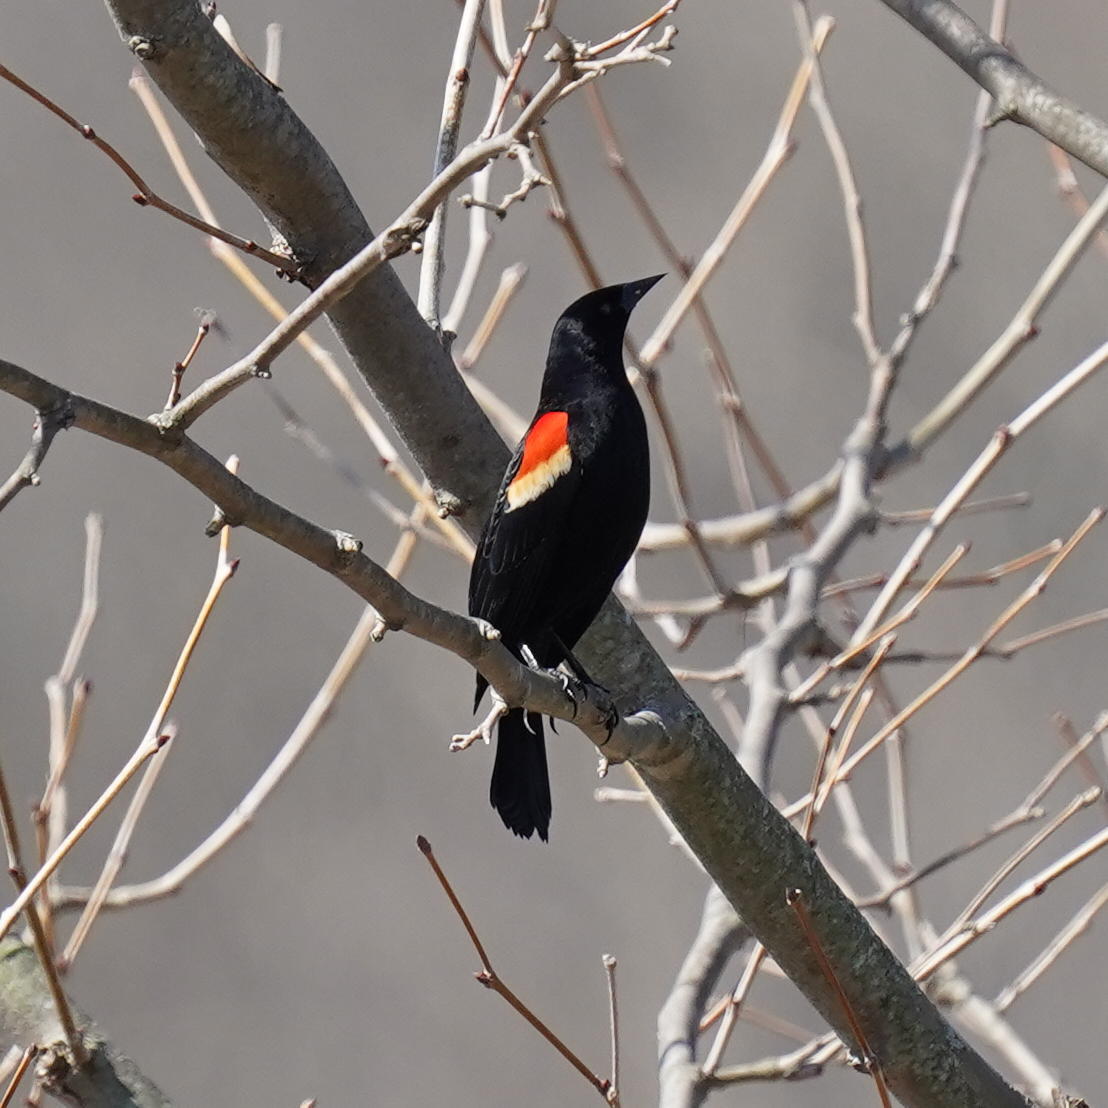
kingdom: Animalia
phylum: Chordata
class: Aves
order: Passeriformes
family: Icteridae
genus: Agelaius
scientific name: Agelaius phoeniceus
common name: Red-winged blackbird
